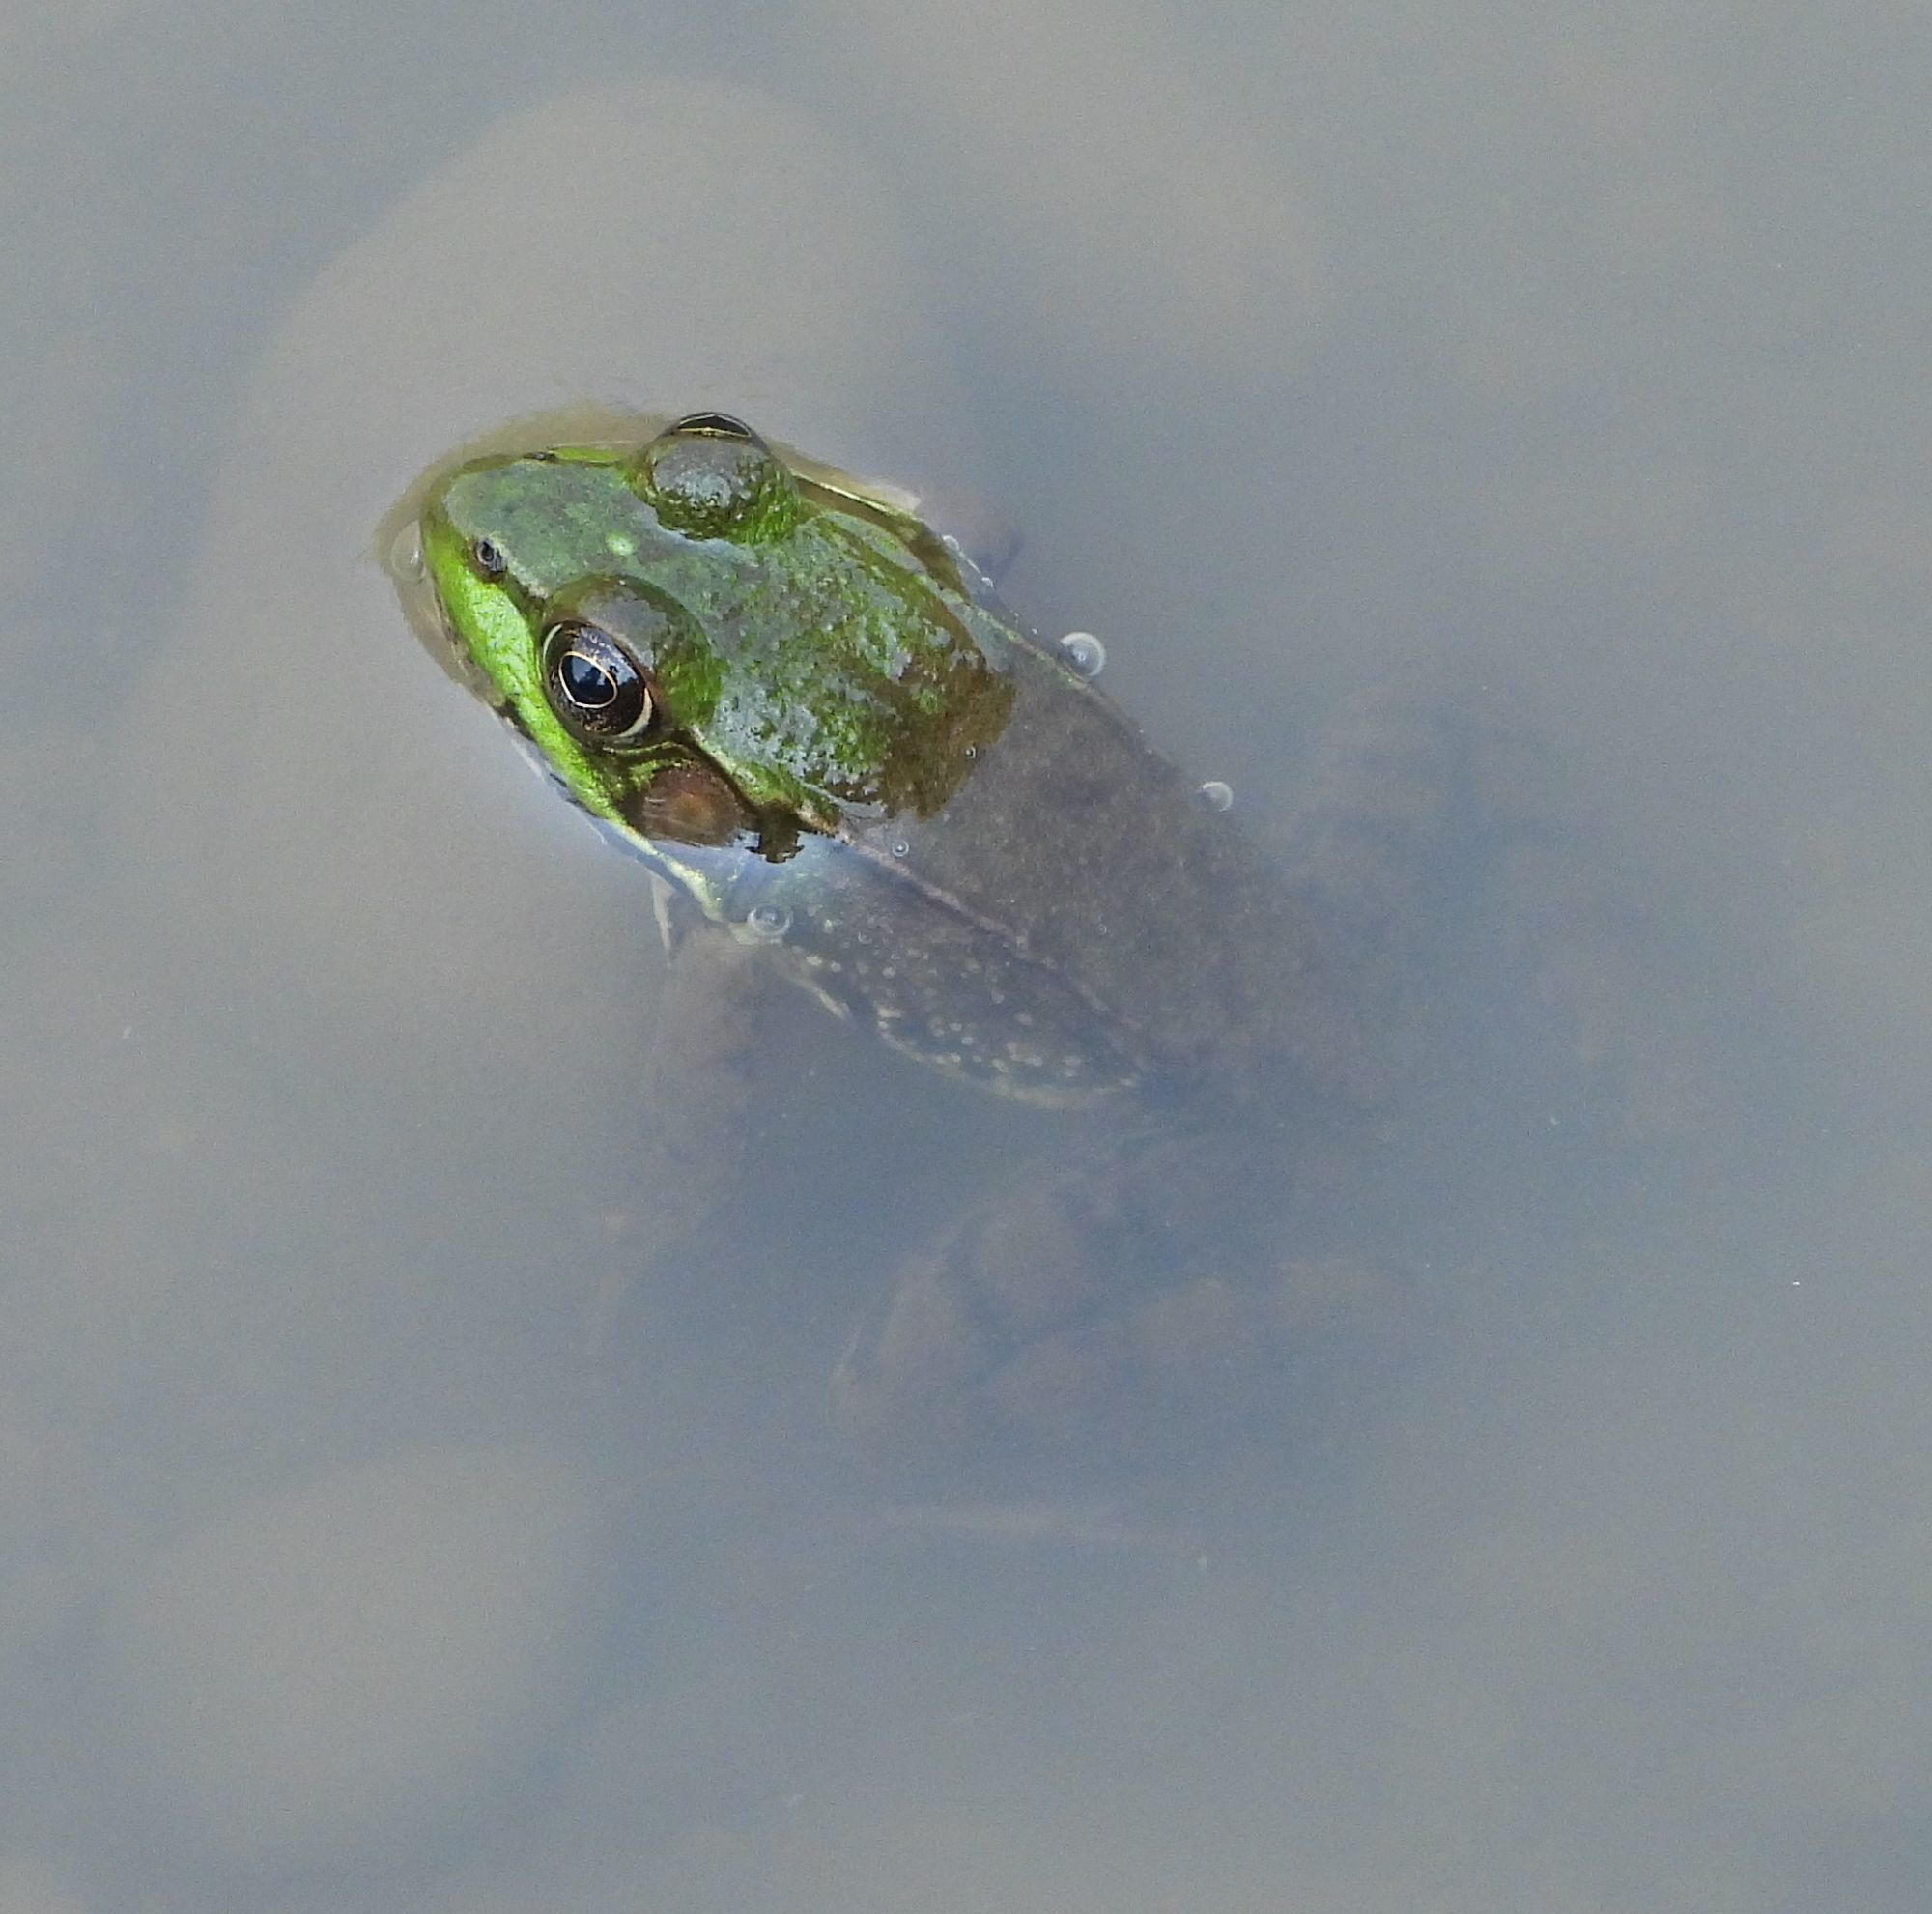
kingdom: Animalia
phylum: Chordata
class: Amphibia
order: Anura
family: Ranidae
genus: Lithobates
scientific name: Lithobates clamitans
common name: Green frog
